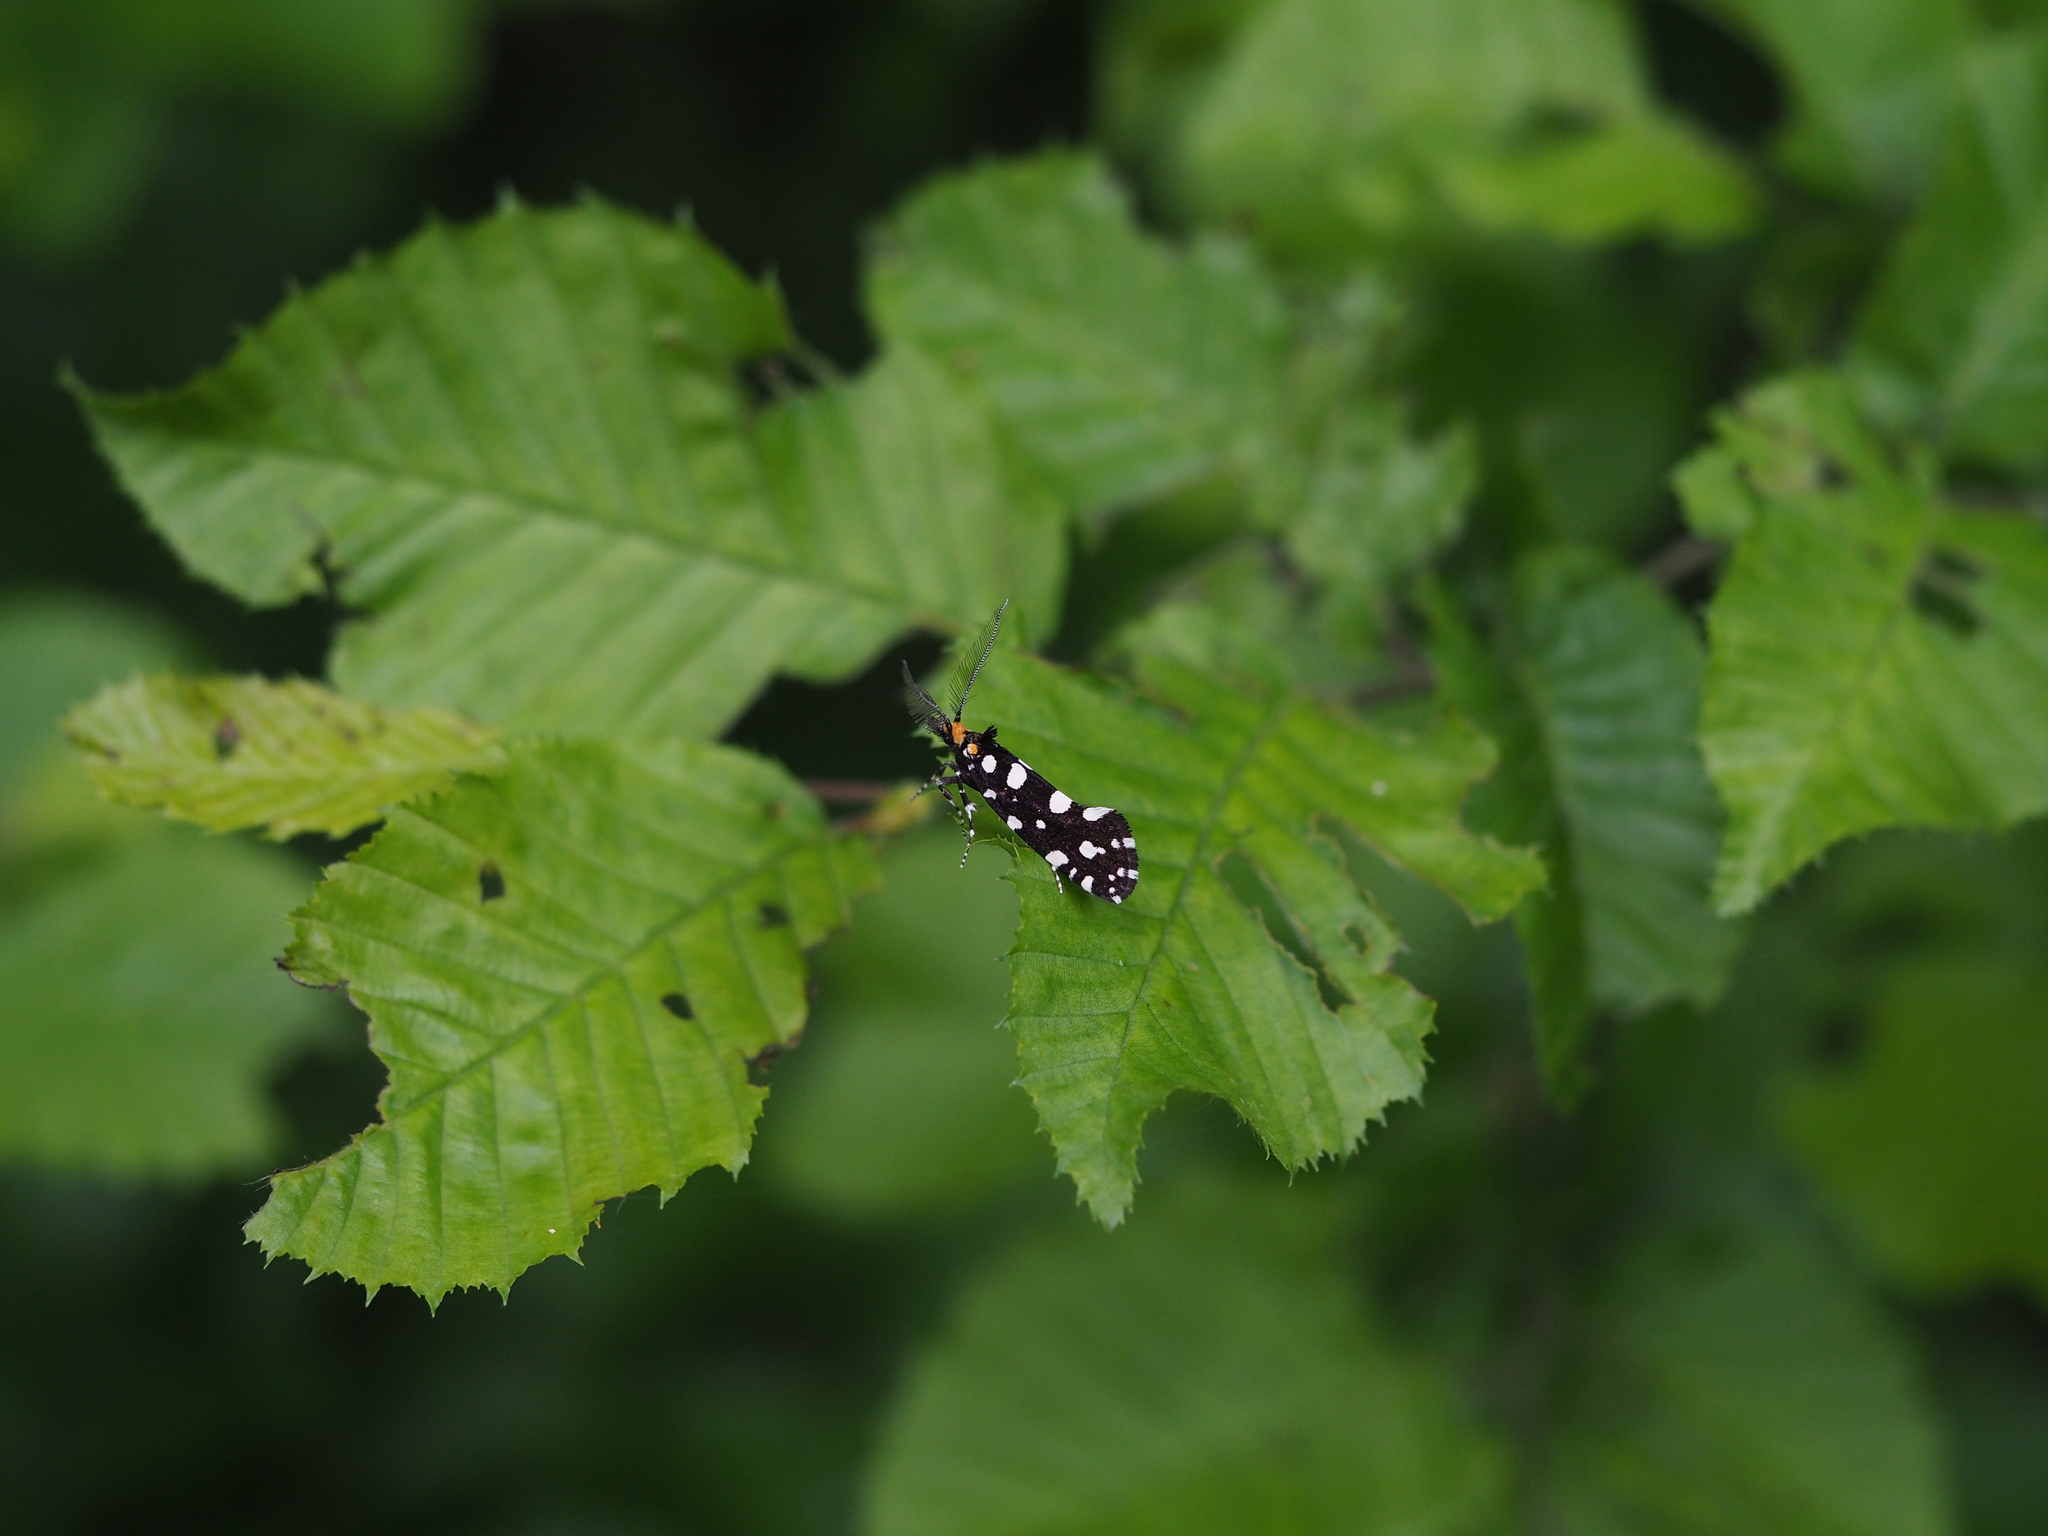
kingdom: Animalia
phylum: Arthropoda
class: Insecta
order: Lepidoptera
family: Tineidae
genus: Euplocamus
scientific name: Euplocamus anthracinalis
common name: Black clothes
